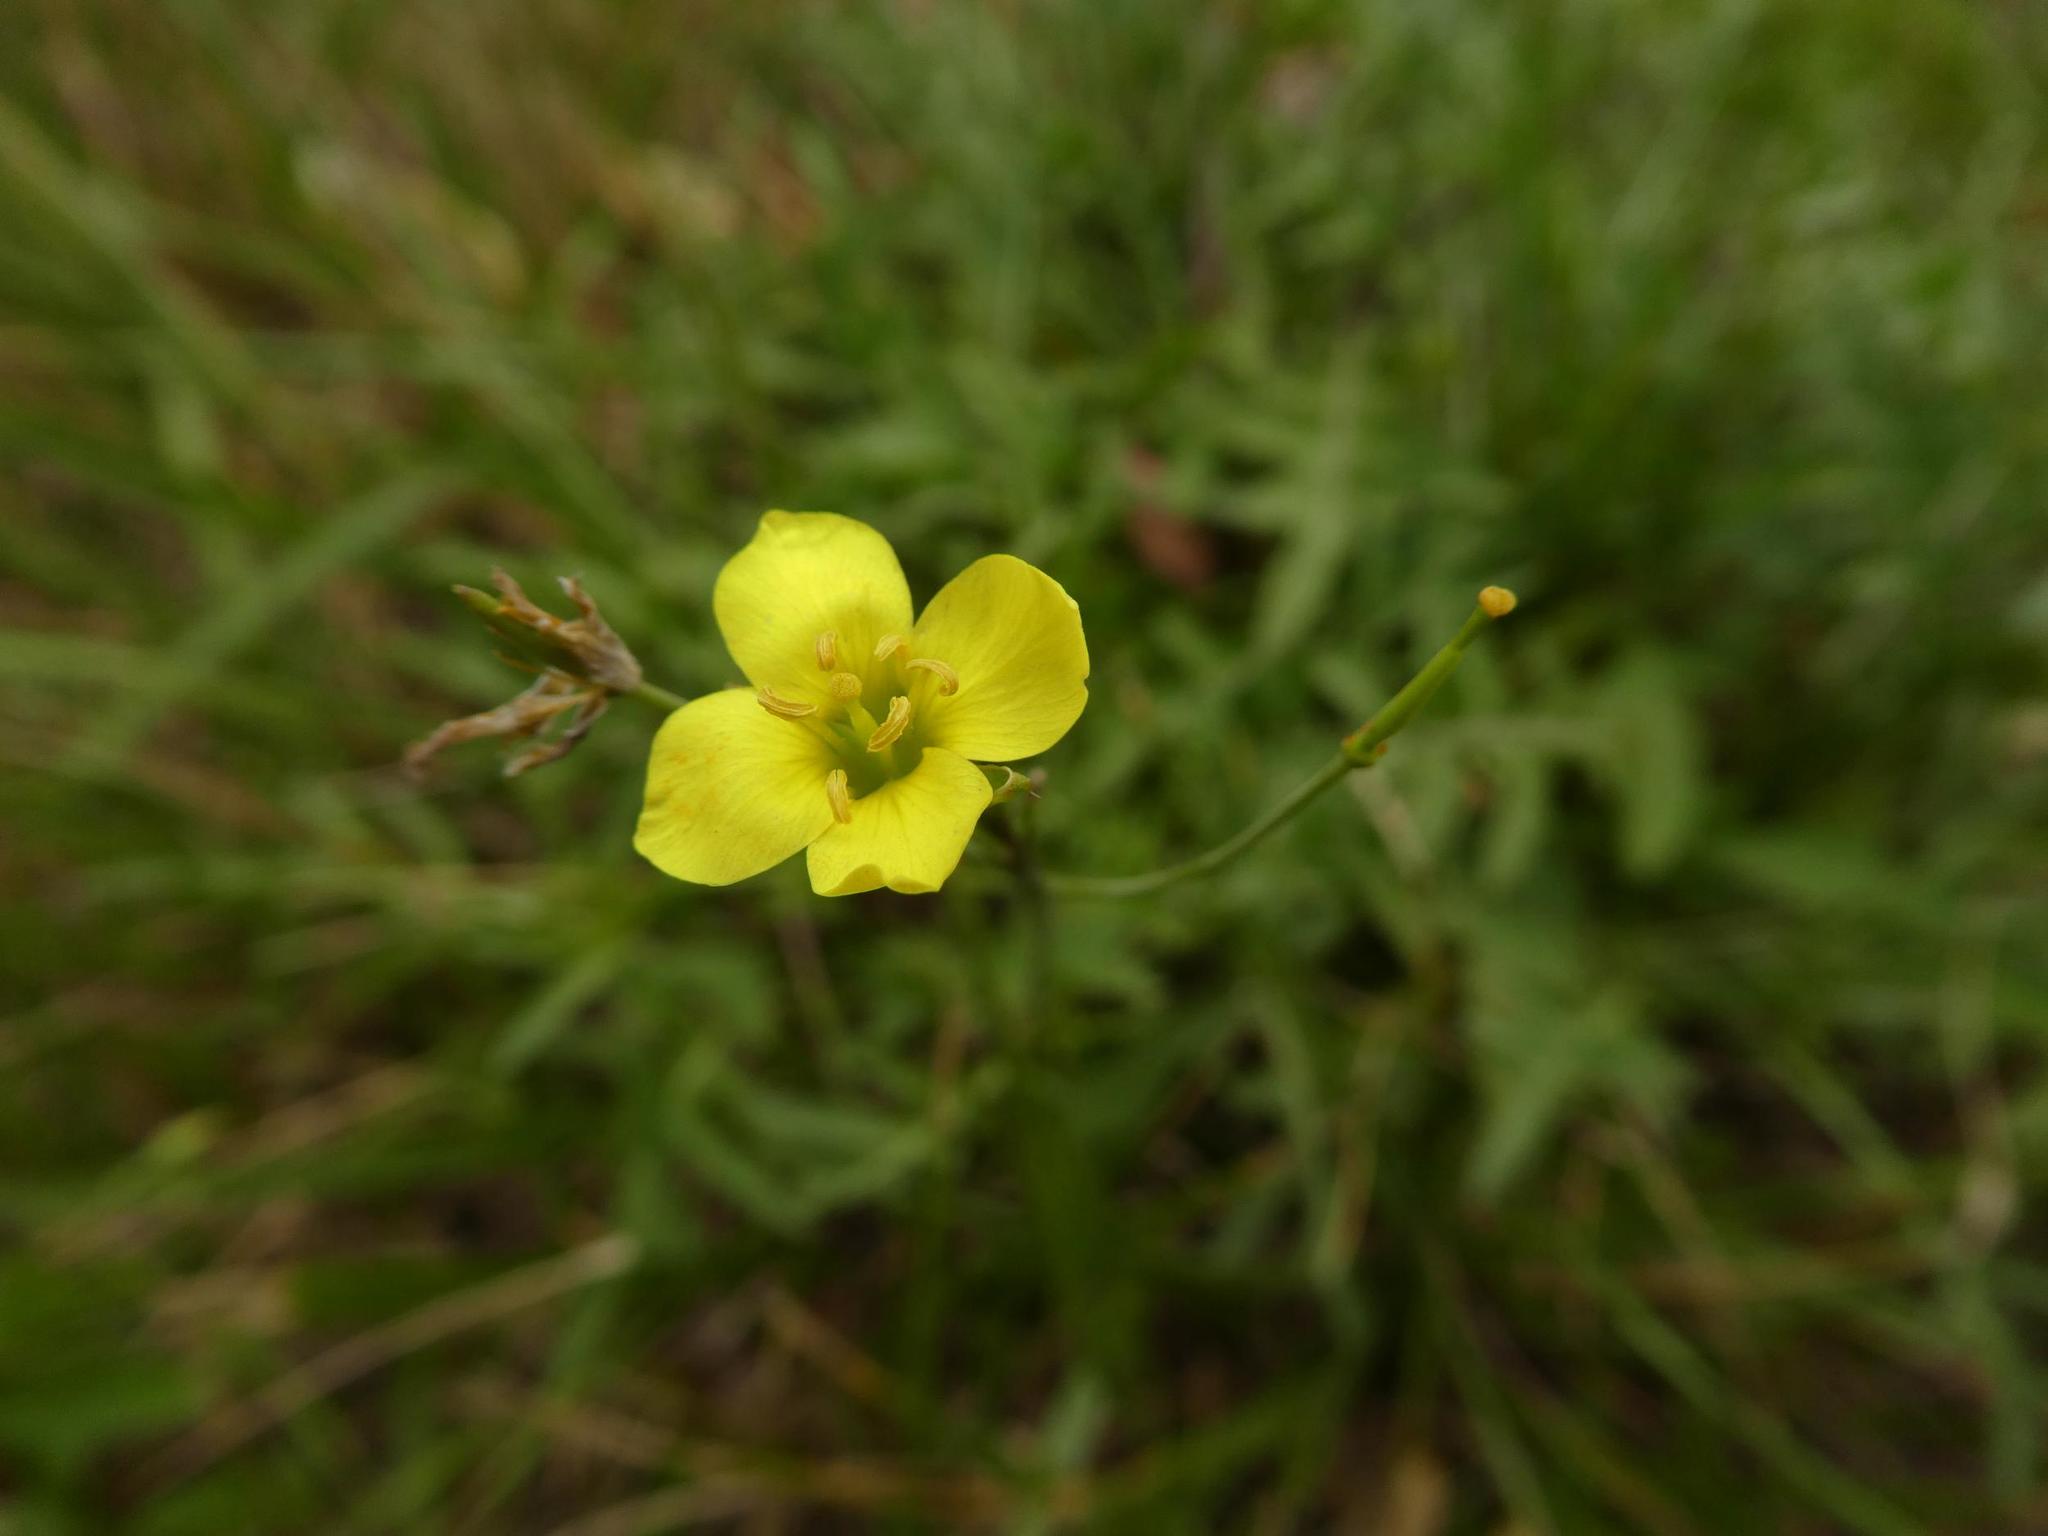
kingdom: Plantae
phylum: Tracheophyta
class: Magnoliopsida
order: Brassicales
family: Brassicaceae
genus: Diplotaxis
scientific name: Diplotaxis tenuifolia
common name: Perennial wall-rocket
